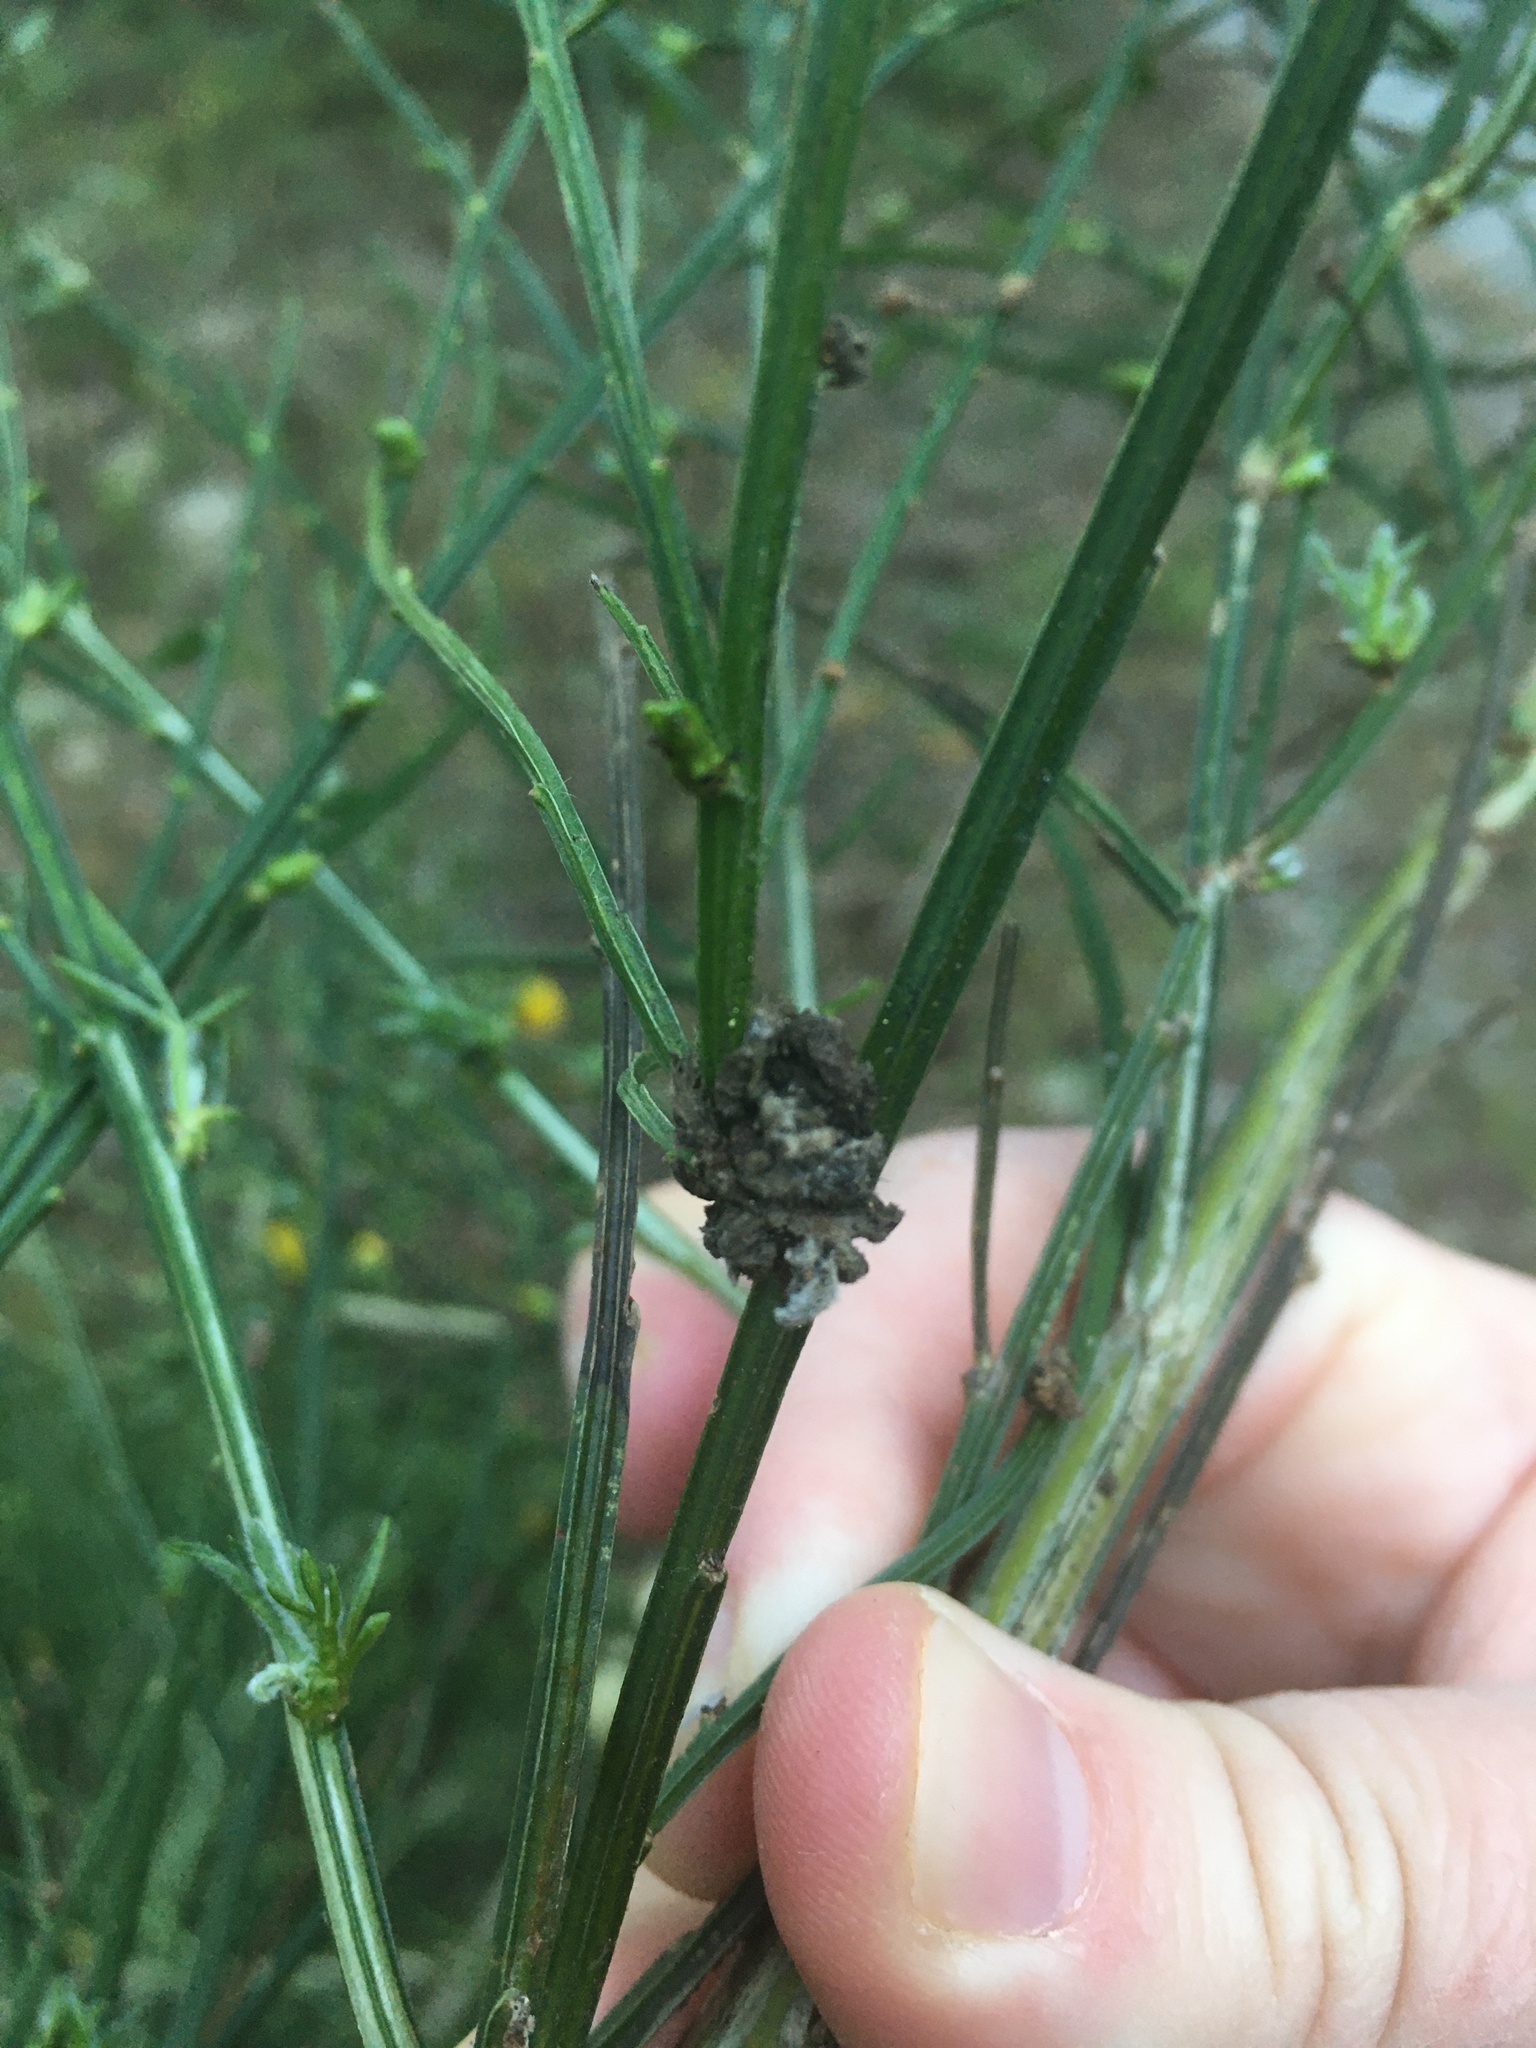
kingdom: Animalia
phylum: Arthropoda
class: Arachnida
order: Trombidiformes
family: Eriophyidae
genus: Aceria
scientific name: Aceria genistae
